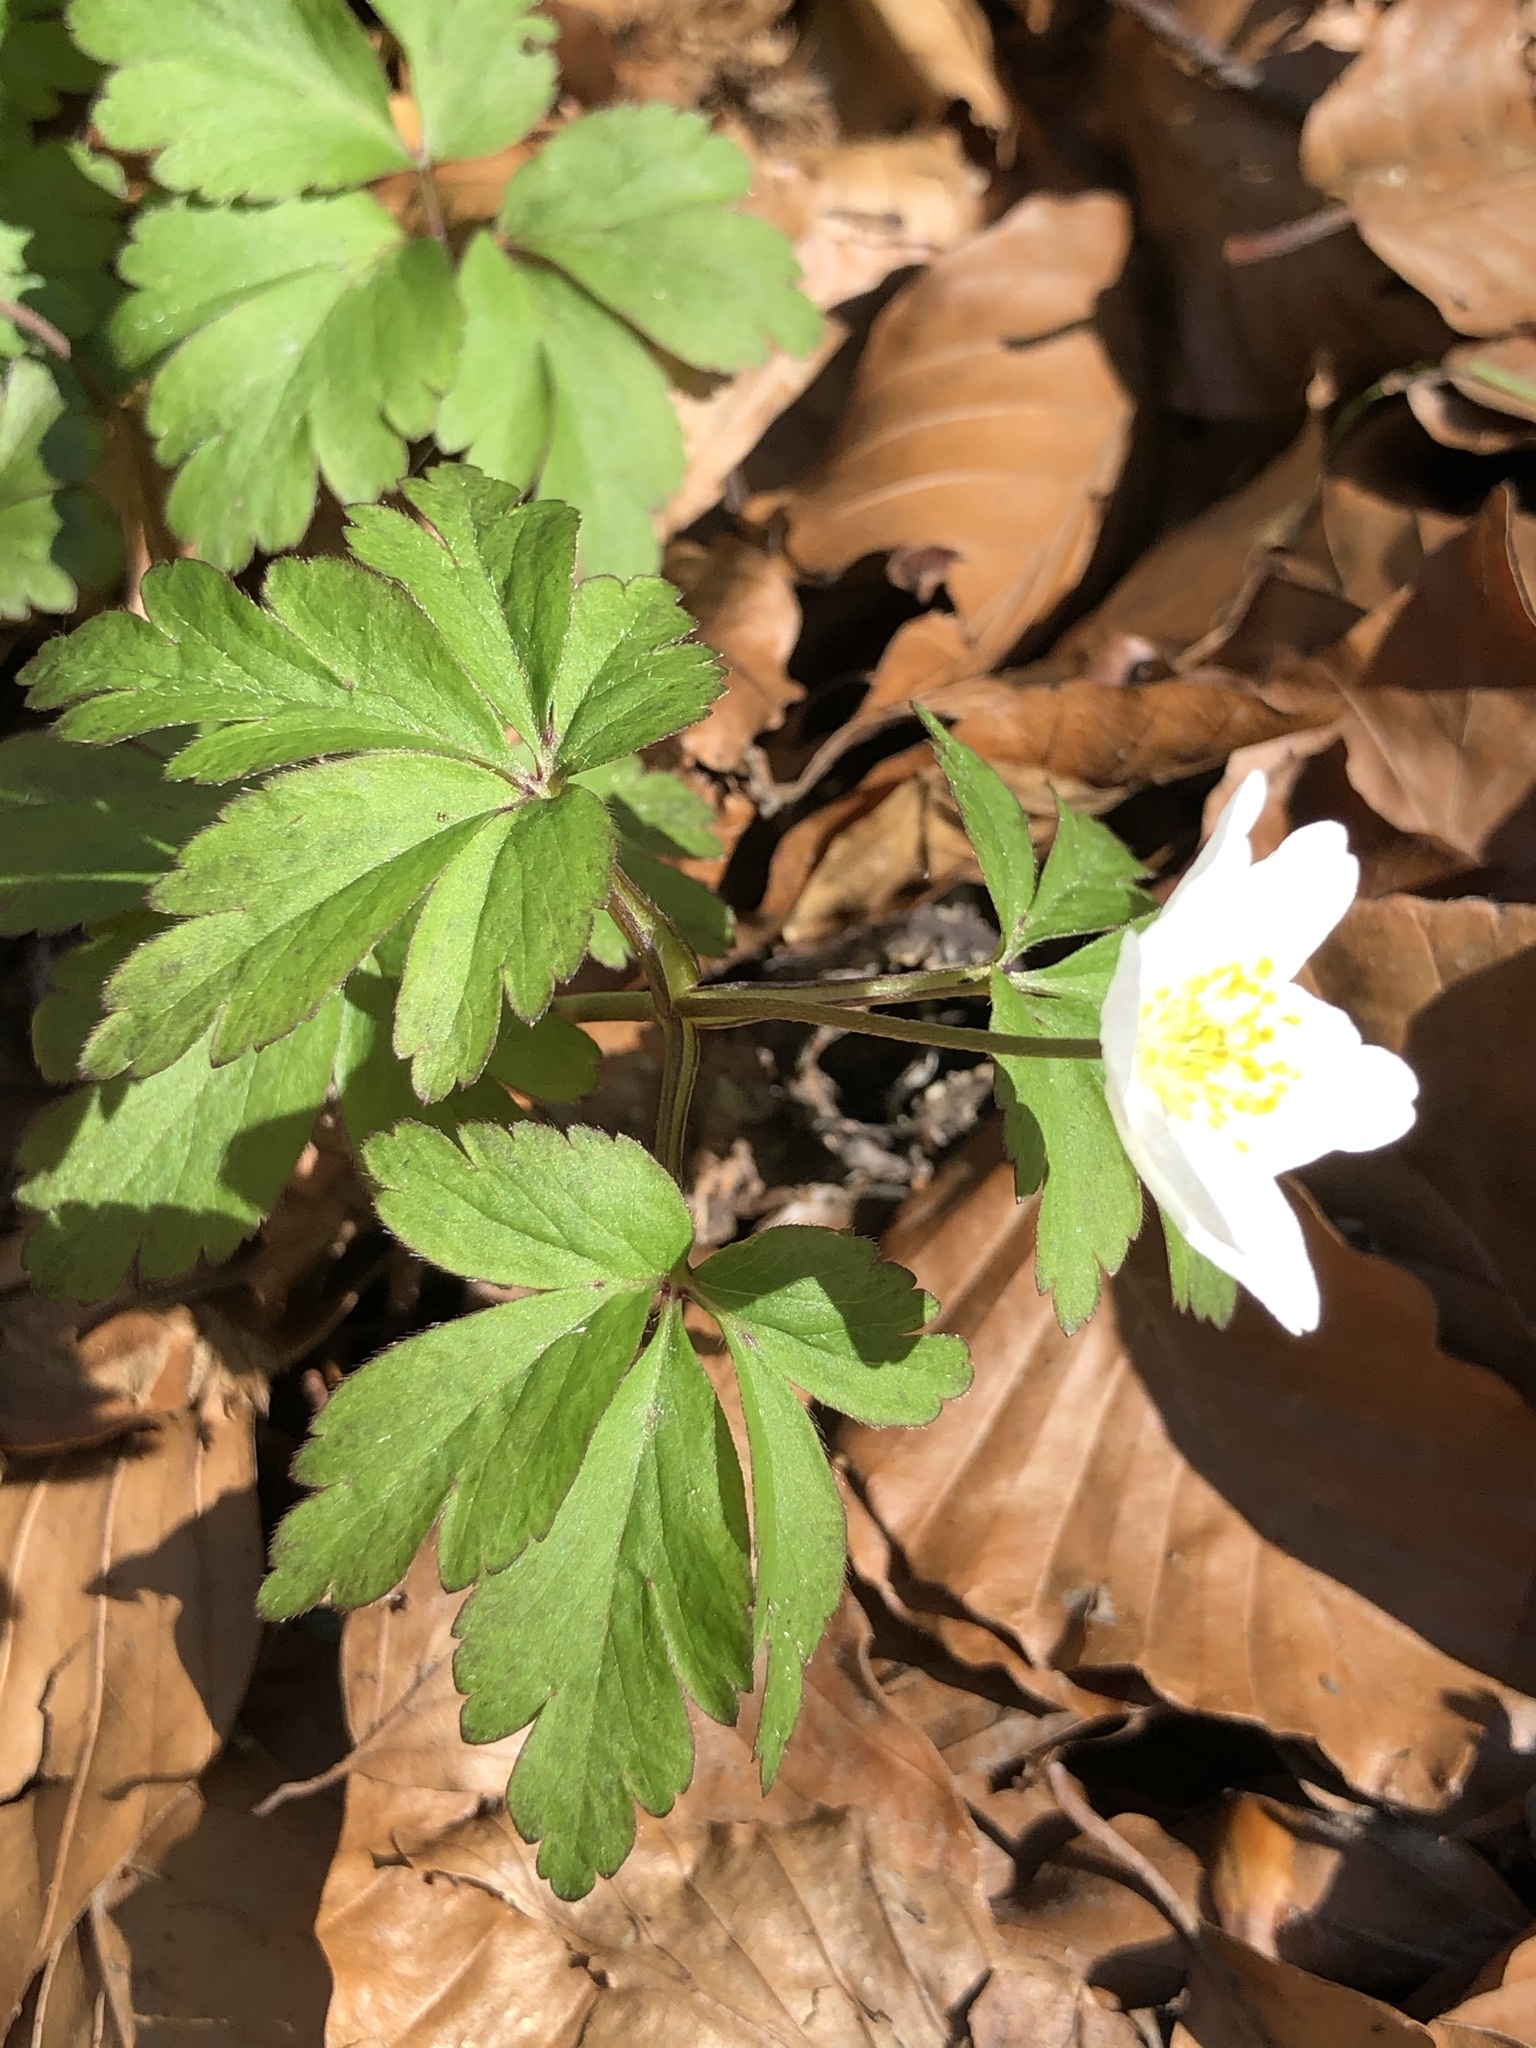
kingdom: Plantae
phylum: Tracheophyta
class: Magnoliopsida
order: Ranunculales
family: Ranunculaceae
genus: Anemone
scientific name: Anemone nemorosa
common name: Wood anemone
